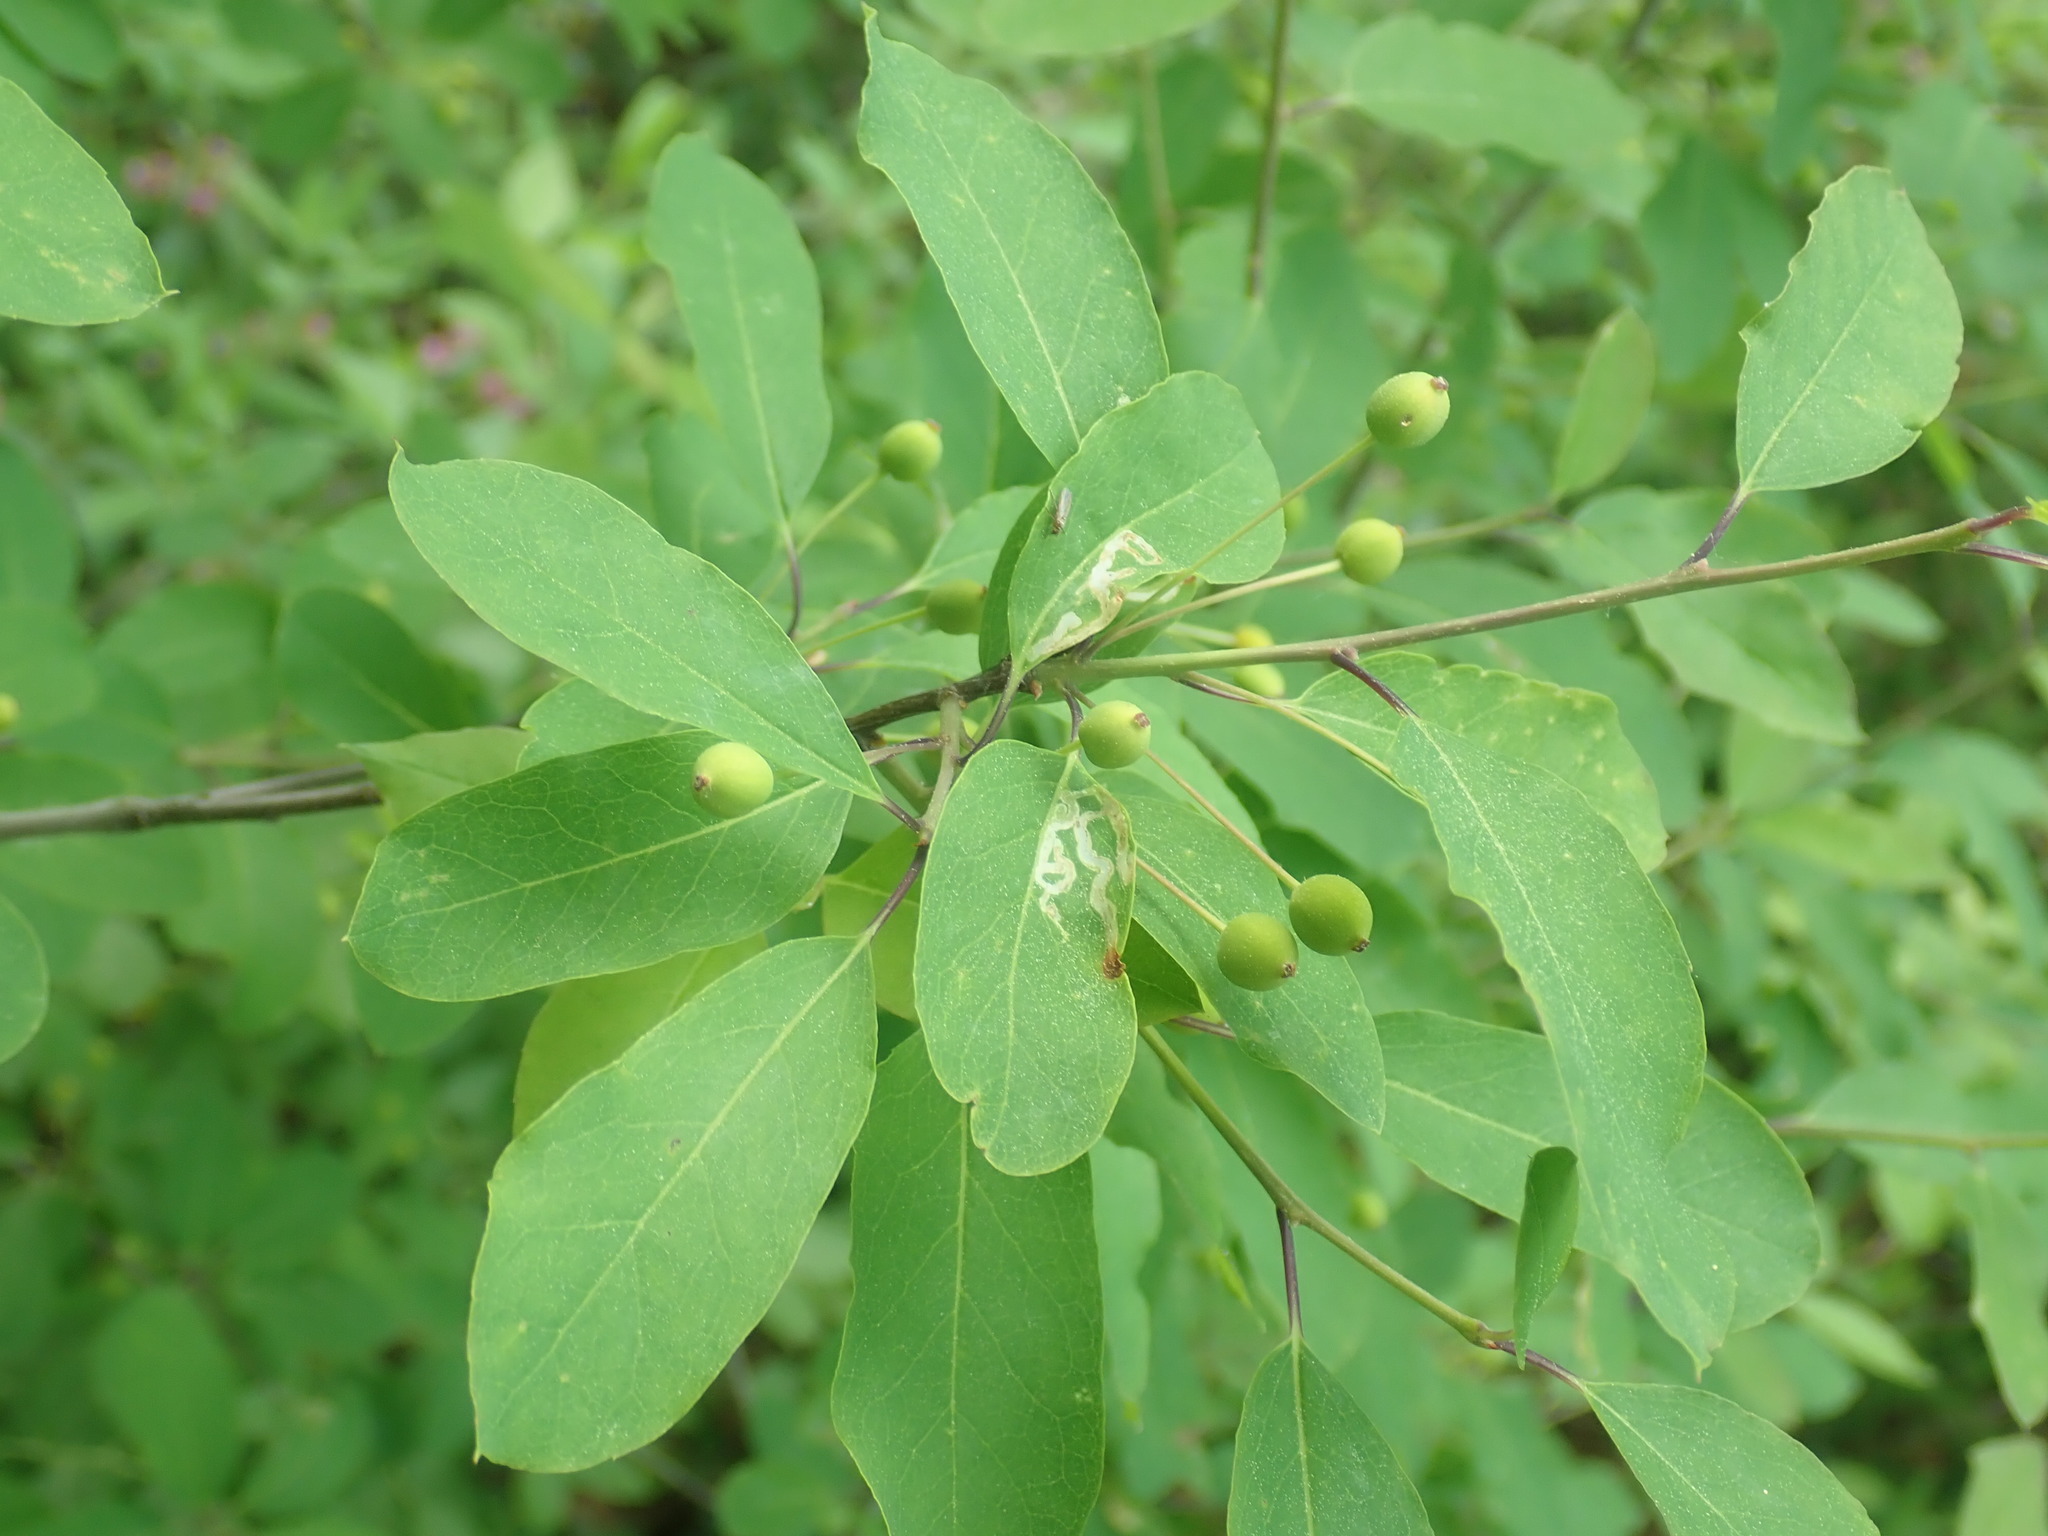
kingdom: Plantae
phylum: Tracheophyta
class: Magnoliopsida
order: Aquifoliales
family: Aquifoliaceae
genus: Ilex
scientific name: Ilex mucronata
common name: Catberry
